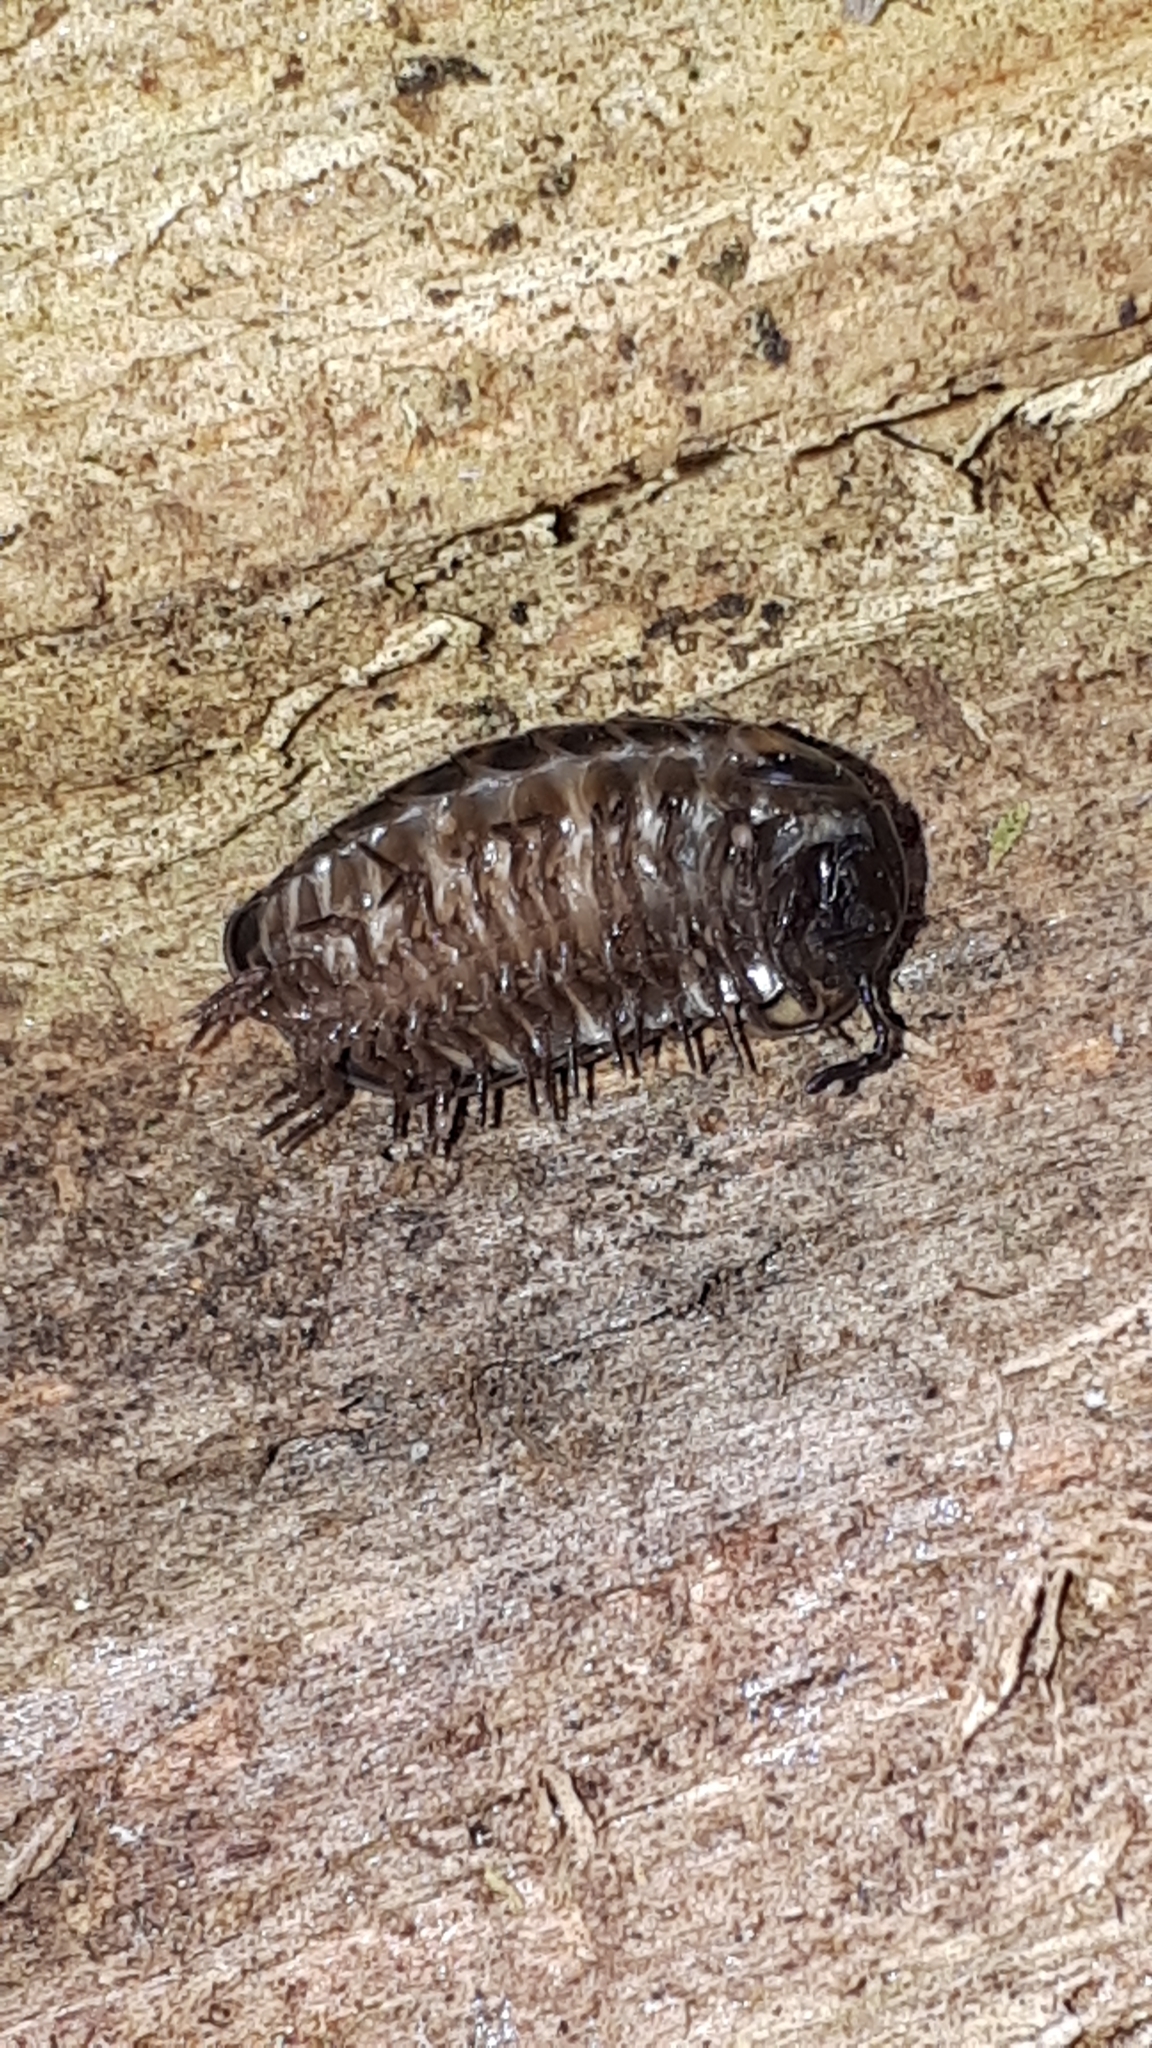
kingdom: Animalia
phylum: Arthropoda
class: Diplopoda
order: Glomerida
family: Glomeridae
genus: Glomeris
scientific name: Glomeris hexasticha
